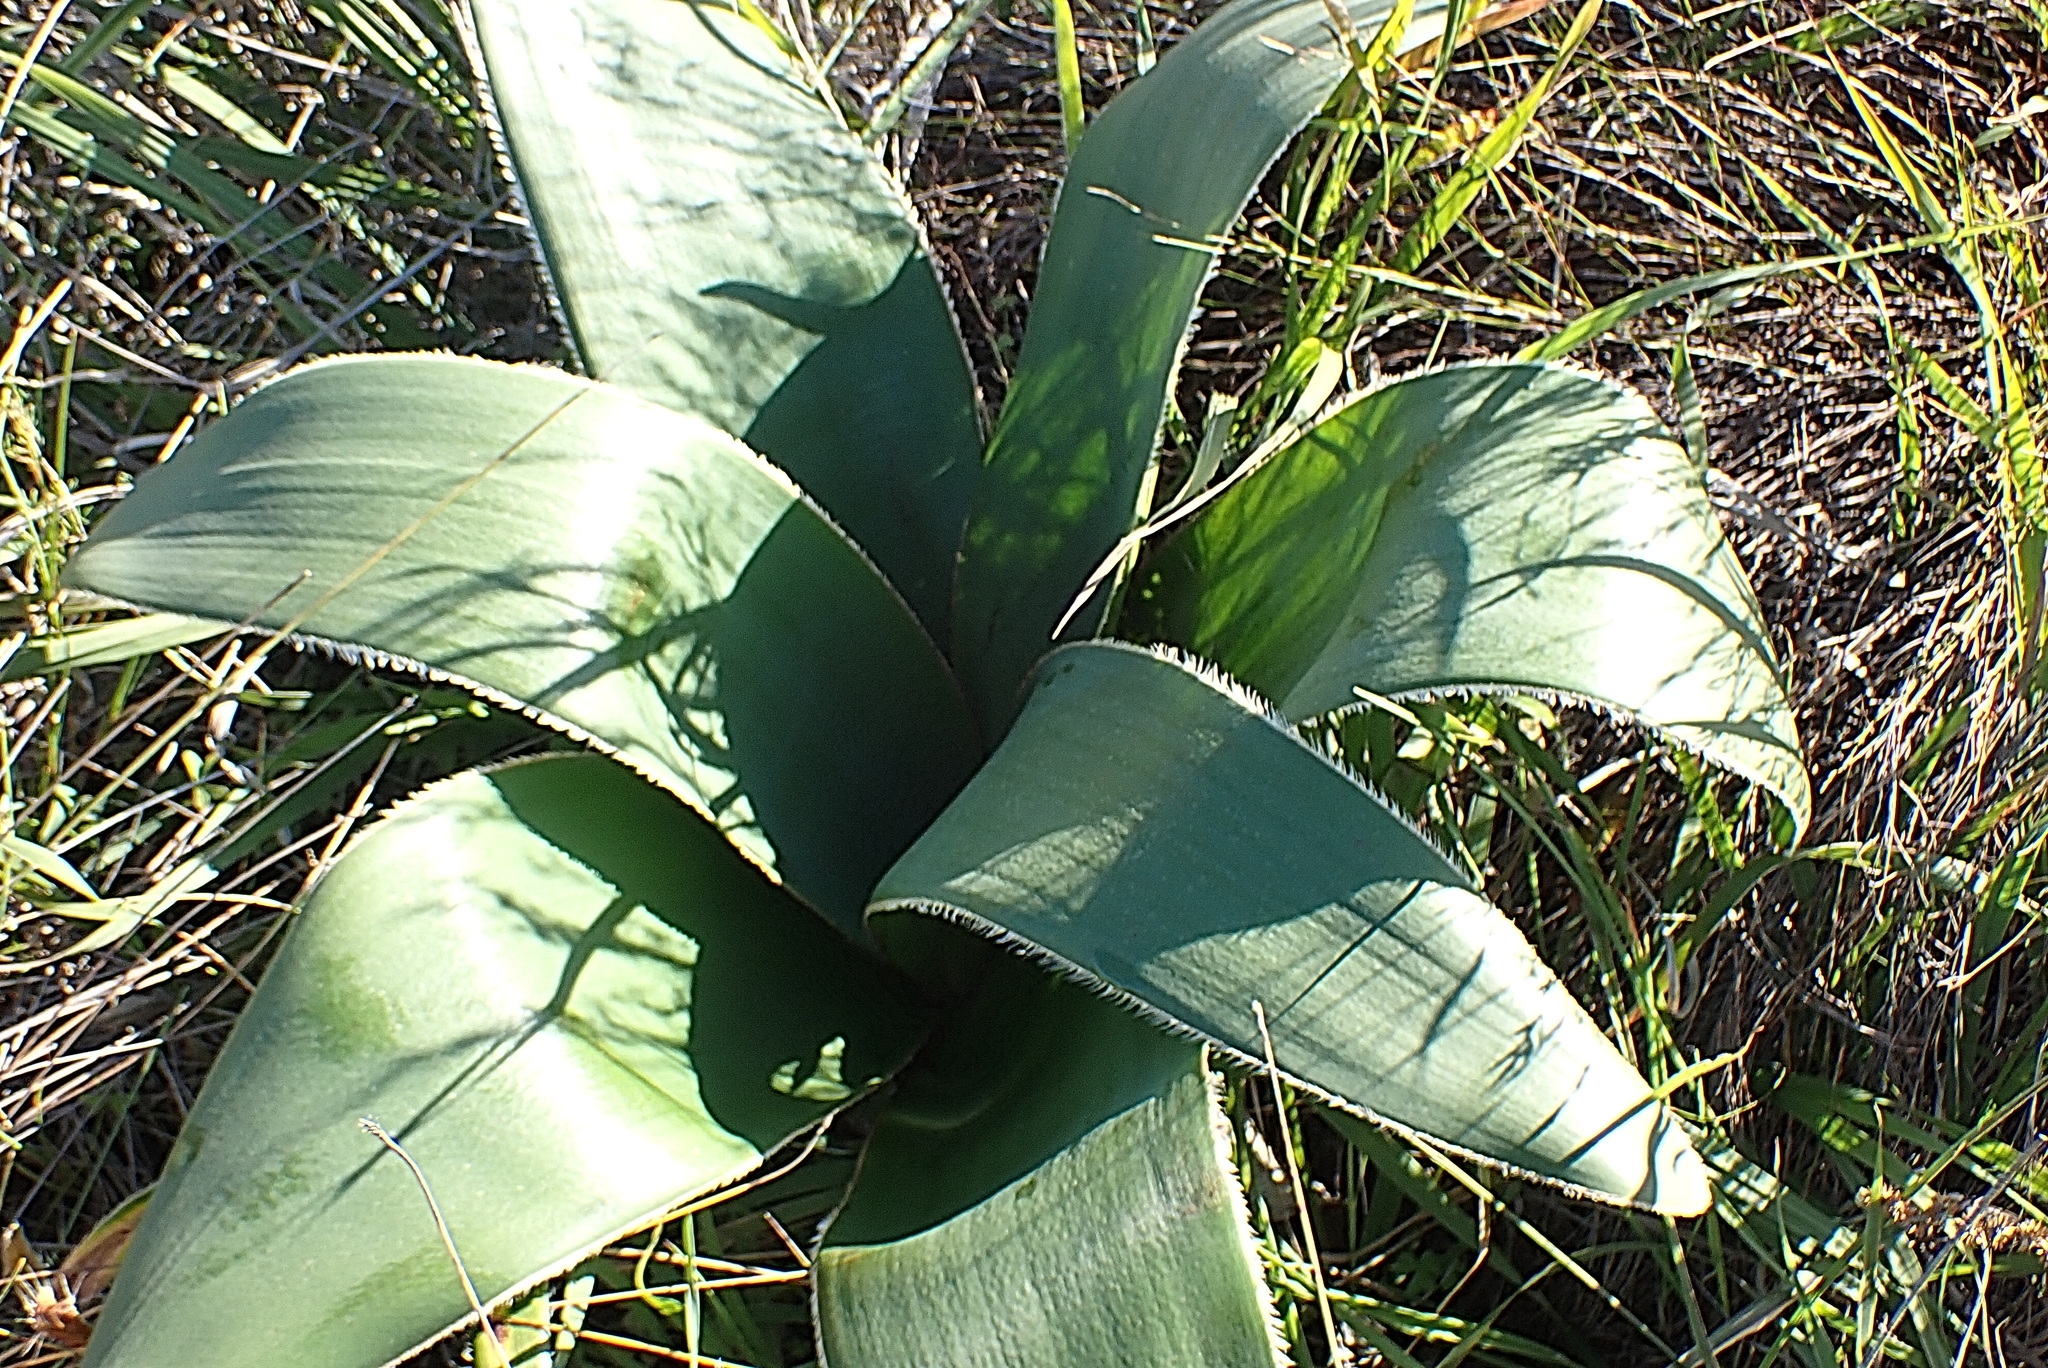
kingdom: Plantae
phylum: Tracheophyta
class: Liliopsida
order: Asparagales
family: Amaryllidaceae
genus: Crossyne
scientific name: Crossyne flava
